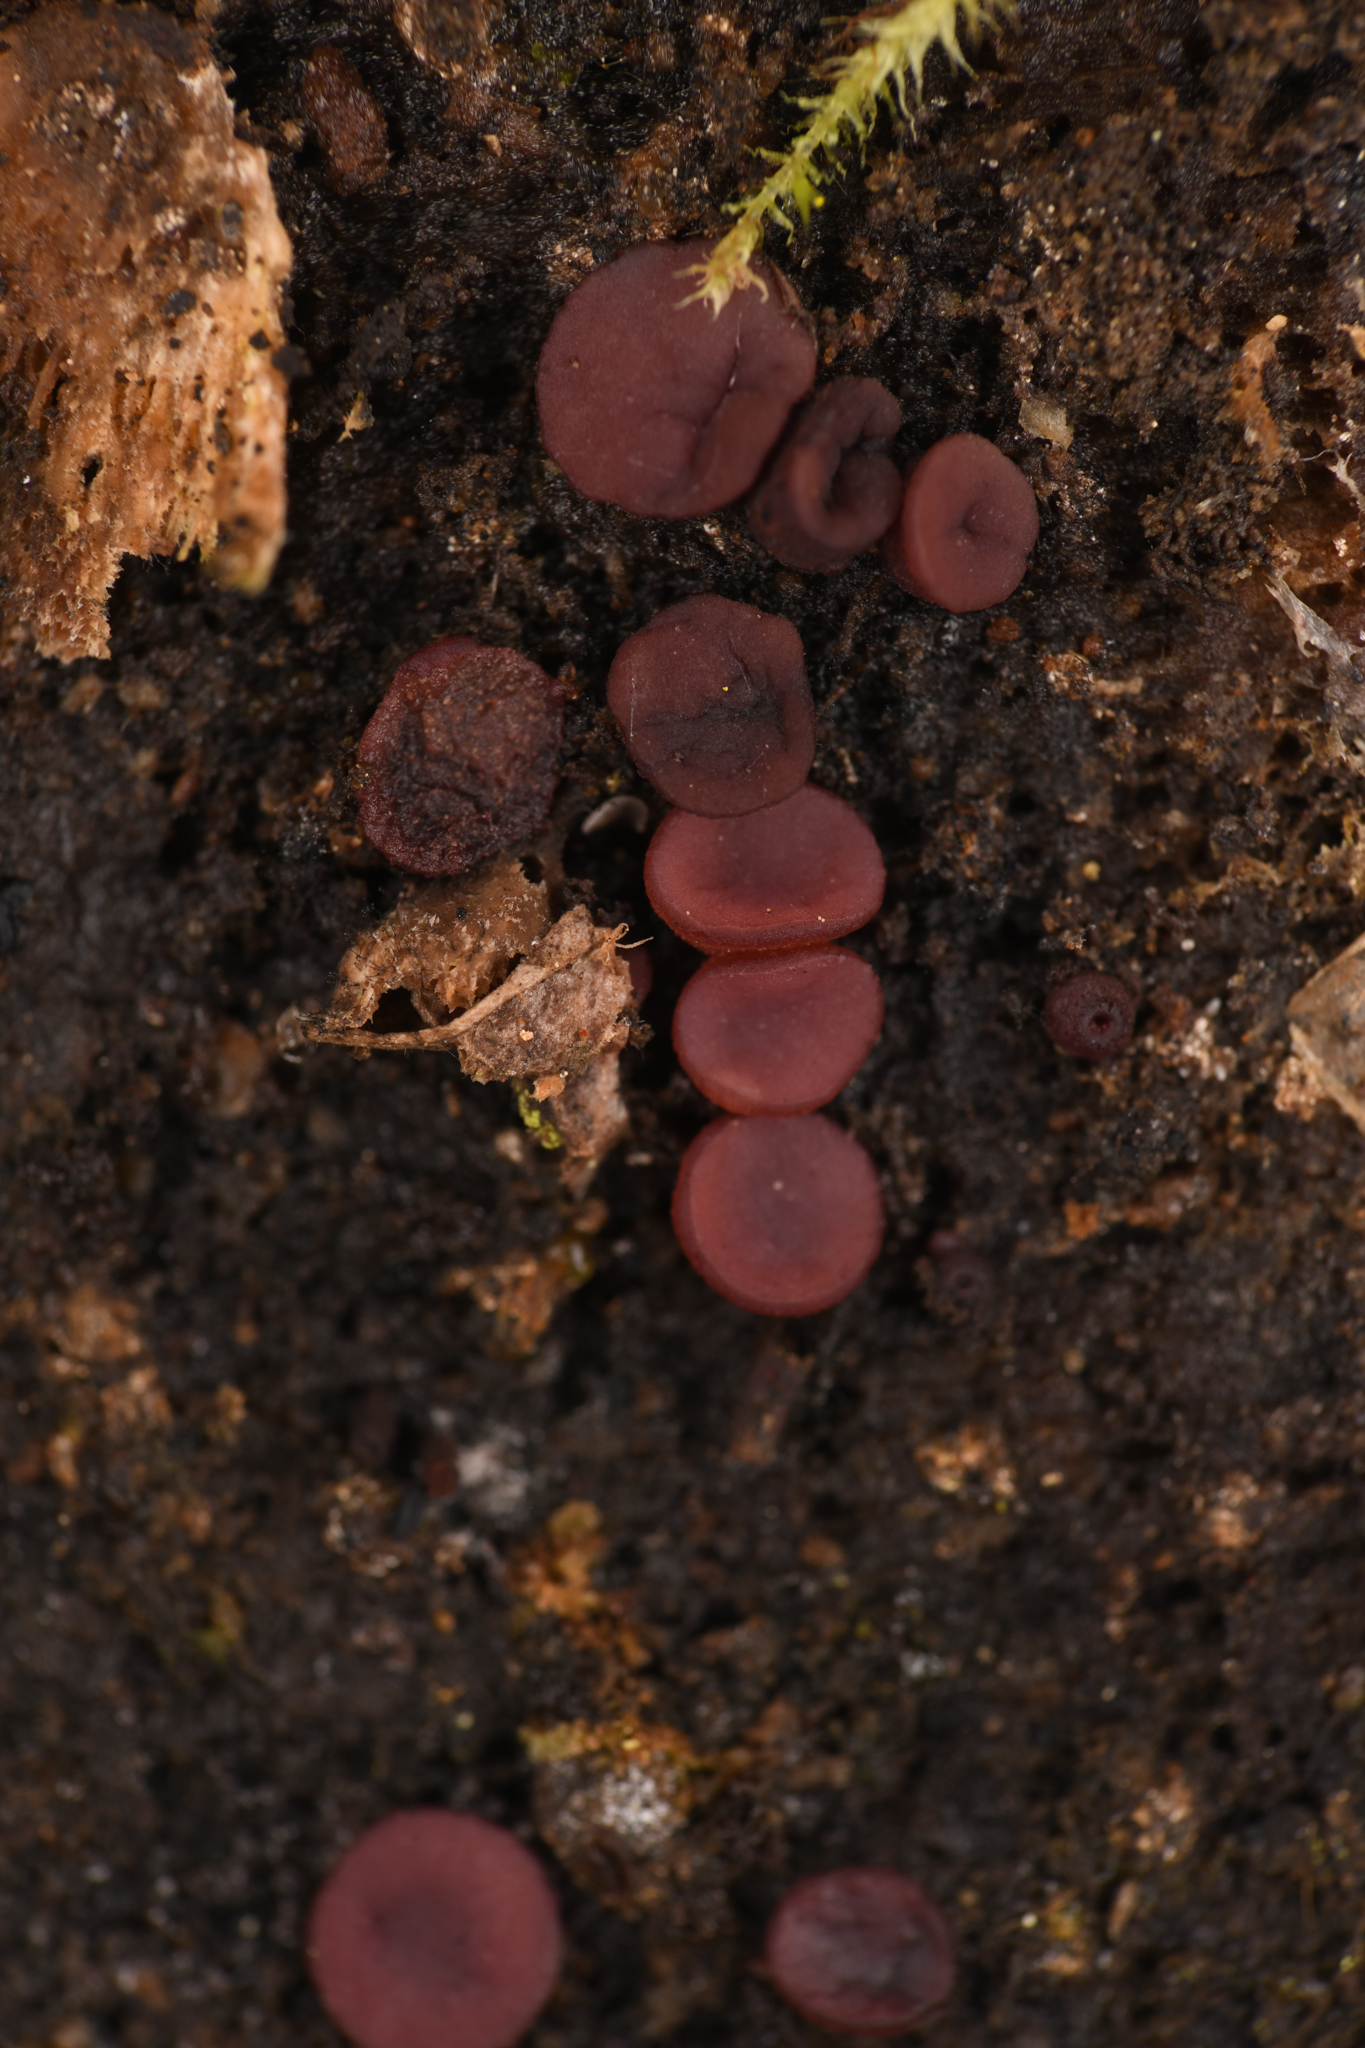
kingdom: Fungi
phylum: Ascomycota
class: Leotiomycetes
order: Helotiales
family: Gelatinodiscaceae
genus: Ascocoryne
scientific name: Ascocoryne sarcoides
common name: Purple jellydisc
